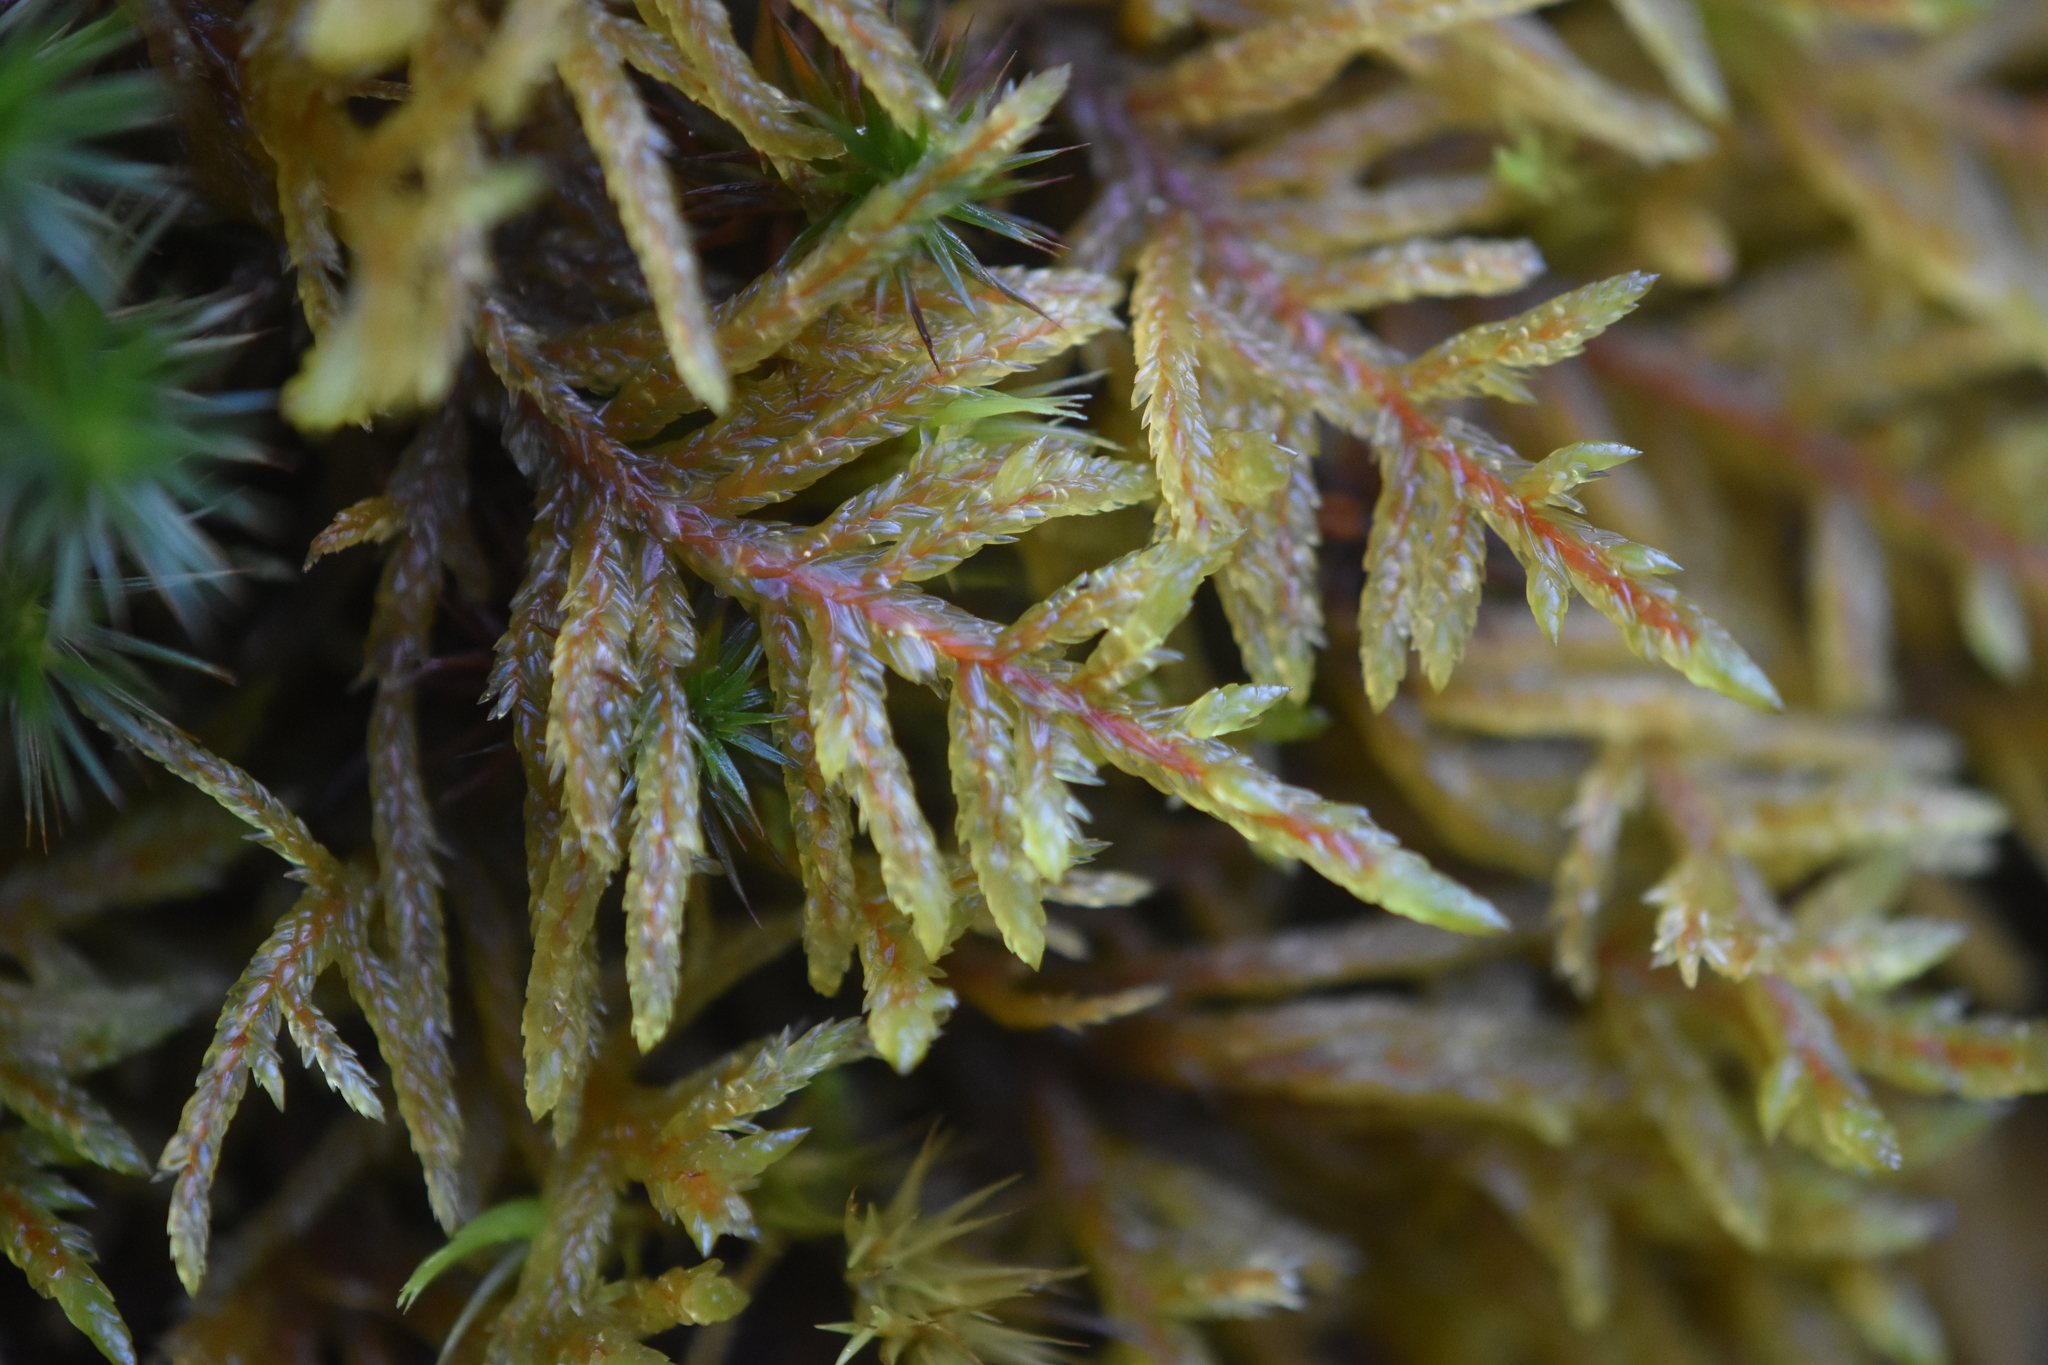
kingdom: Plantae
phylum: Bryophyta
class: Bryopsida
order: Hypnales
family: Hylocomiaceae
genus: Pleurozium
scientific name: Pleurozium schreberi
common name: Red-stemmed feather moss
